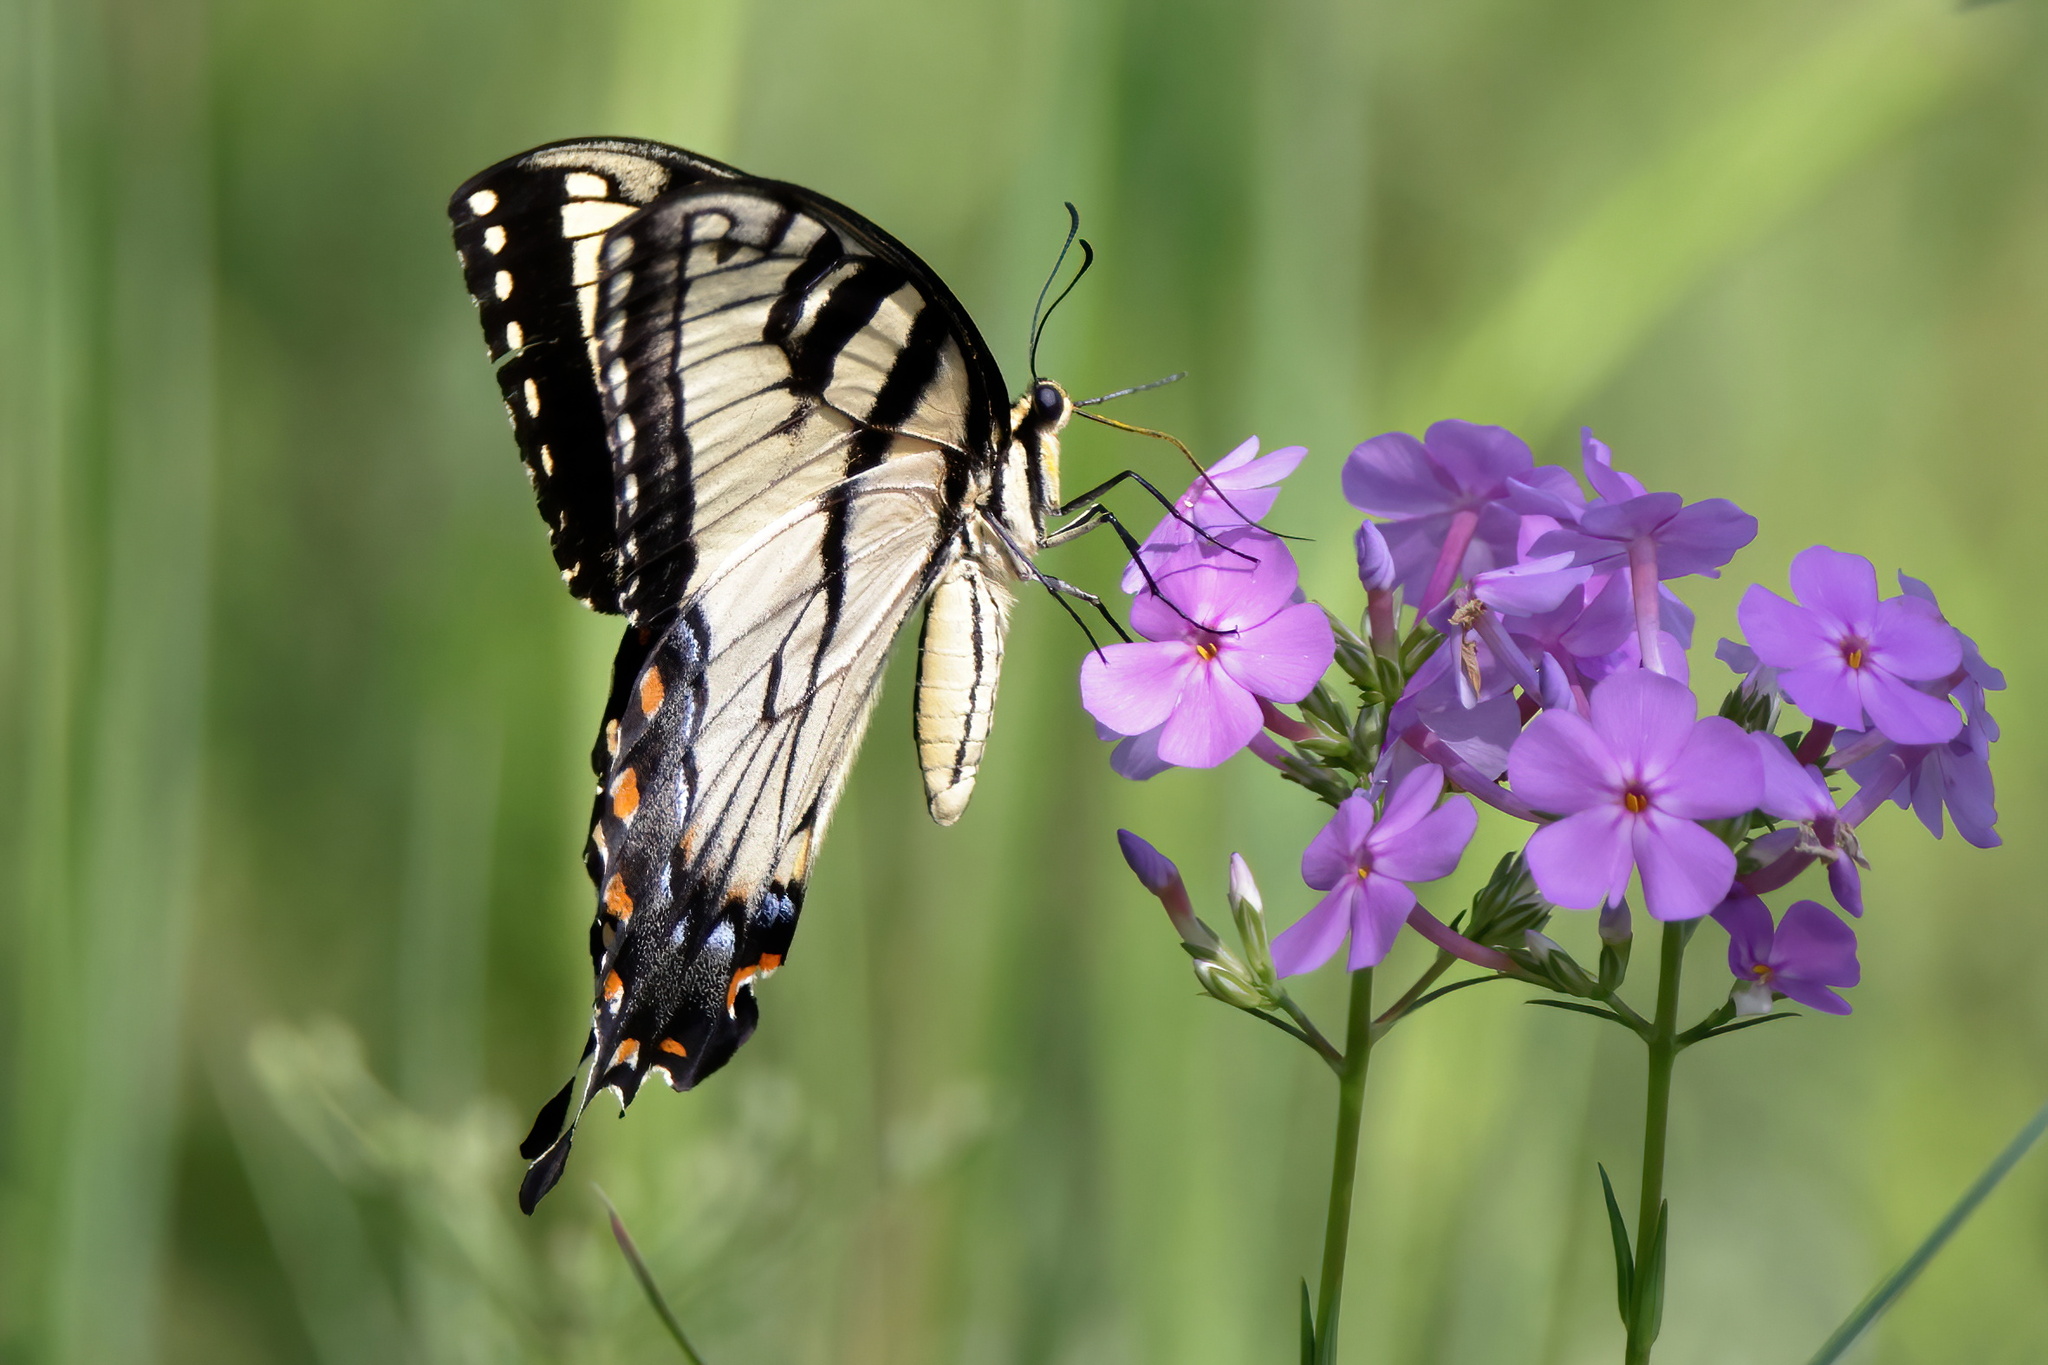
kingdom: Animalia
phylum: Arthropoda
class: Insecta
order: Lepidoptera
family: Papilionidae
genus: Papilio
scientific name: Papilio glaucus
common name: Tiger swallowtail
